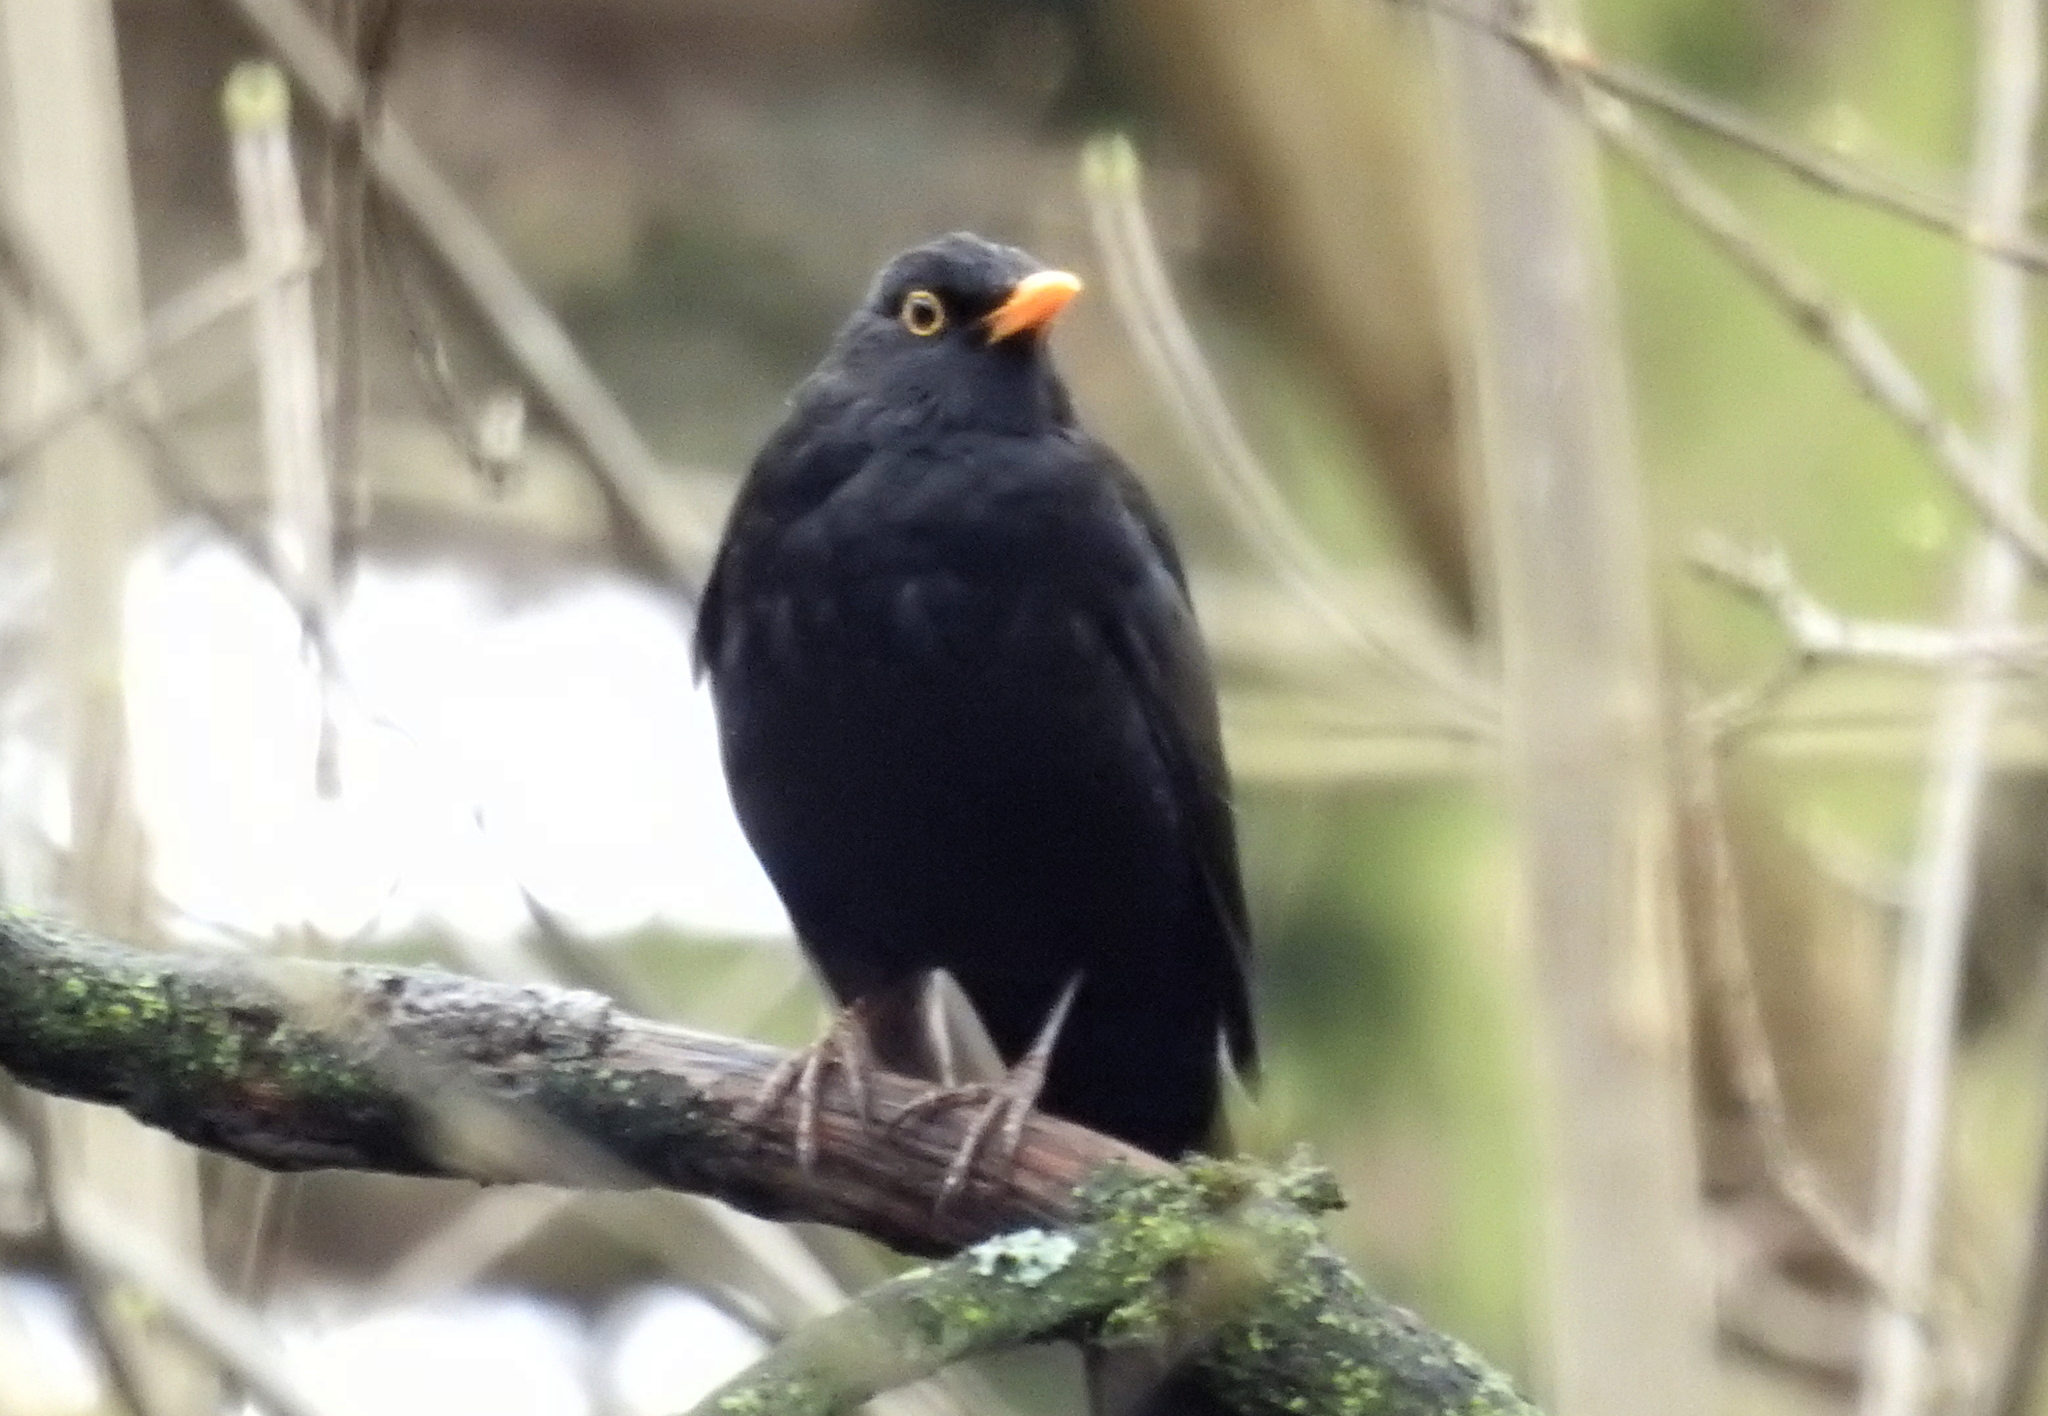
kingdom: Animalia
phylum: Chordata
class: Aves
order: Passeriformes
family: Turdidae
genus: Turdus
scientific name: Turdus merula
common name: Common blackbird
